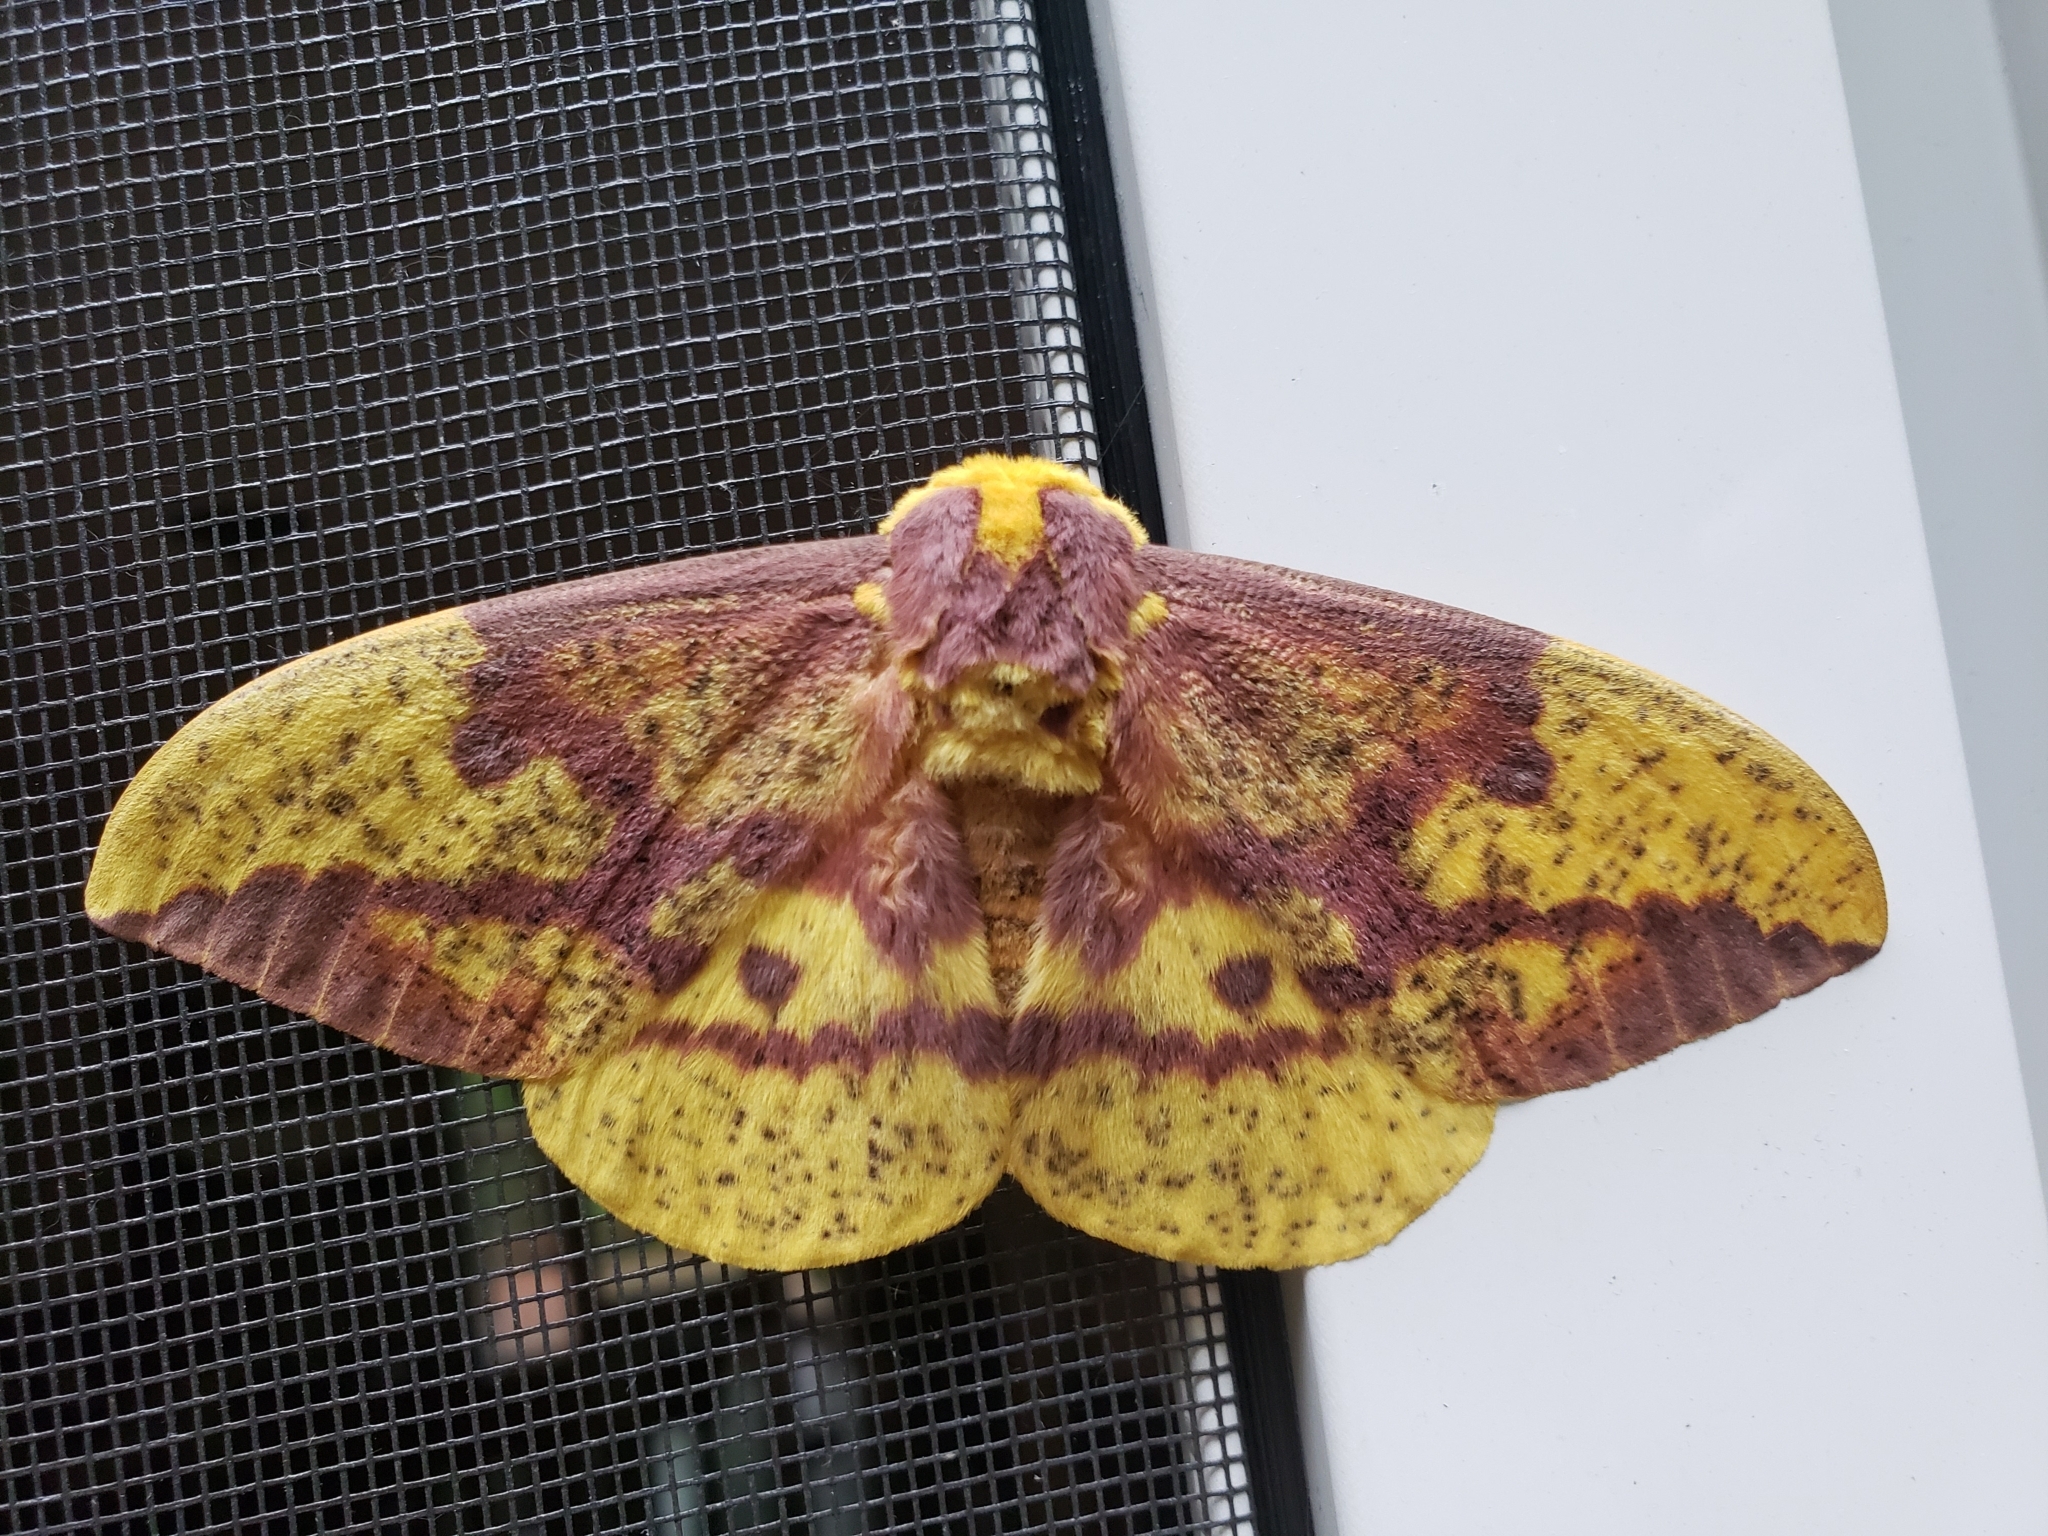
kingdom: Animalia
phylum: Arthropoda
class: Insecta
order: Lepidoptera
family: Saturniidae
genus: Eacles
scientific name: Eacles imperialis
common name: Imperial moth
